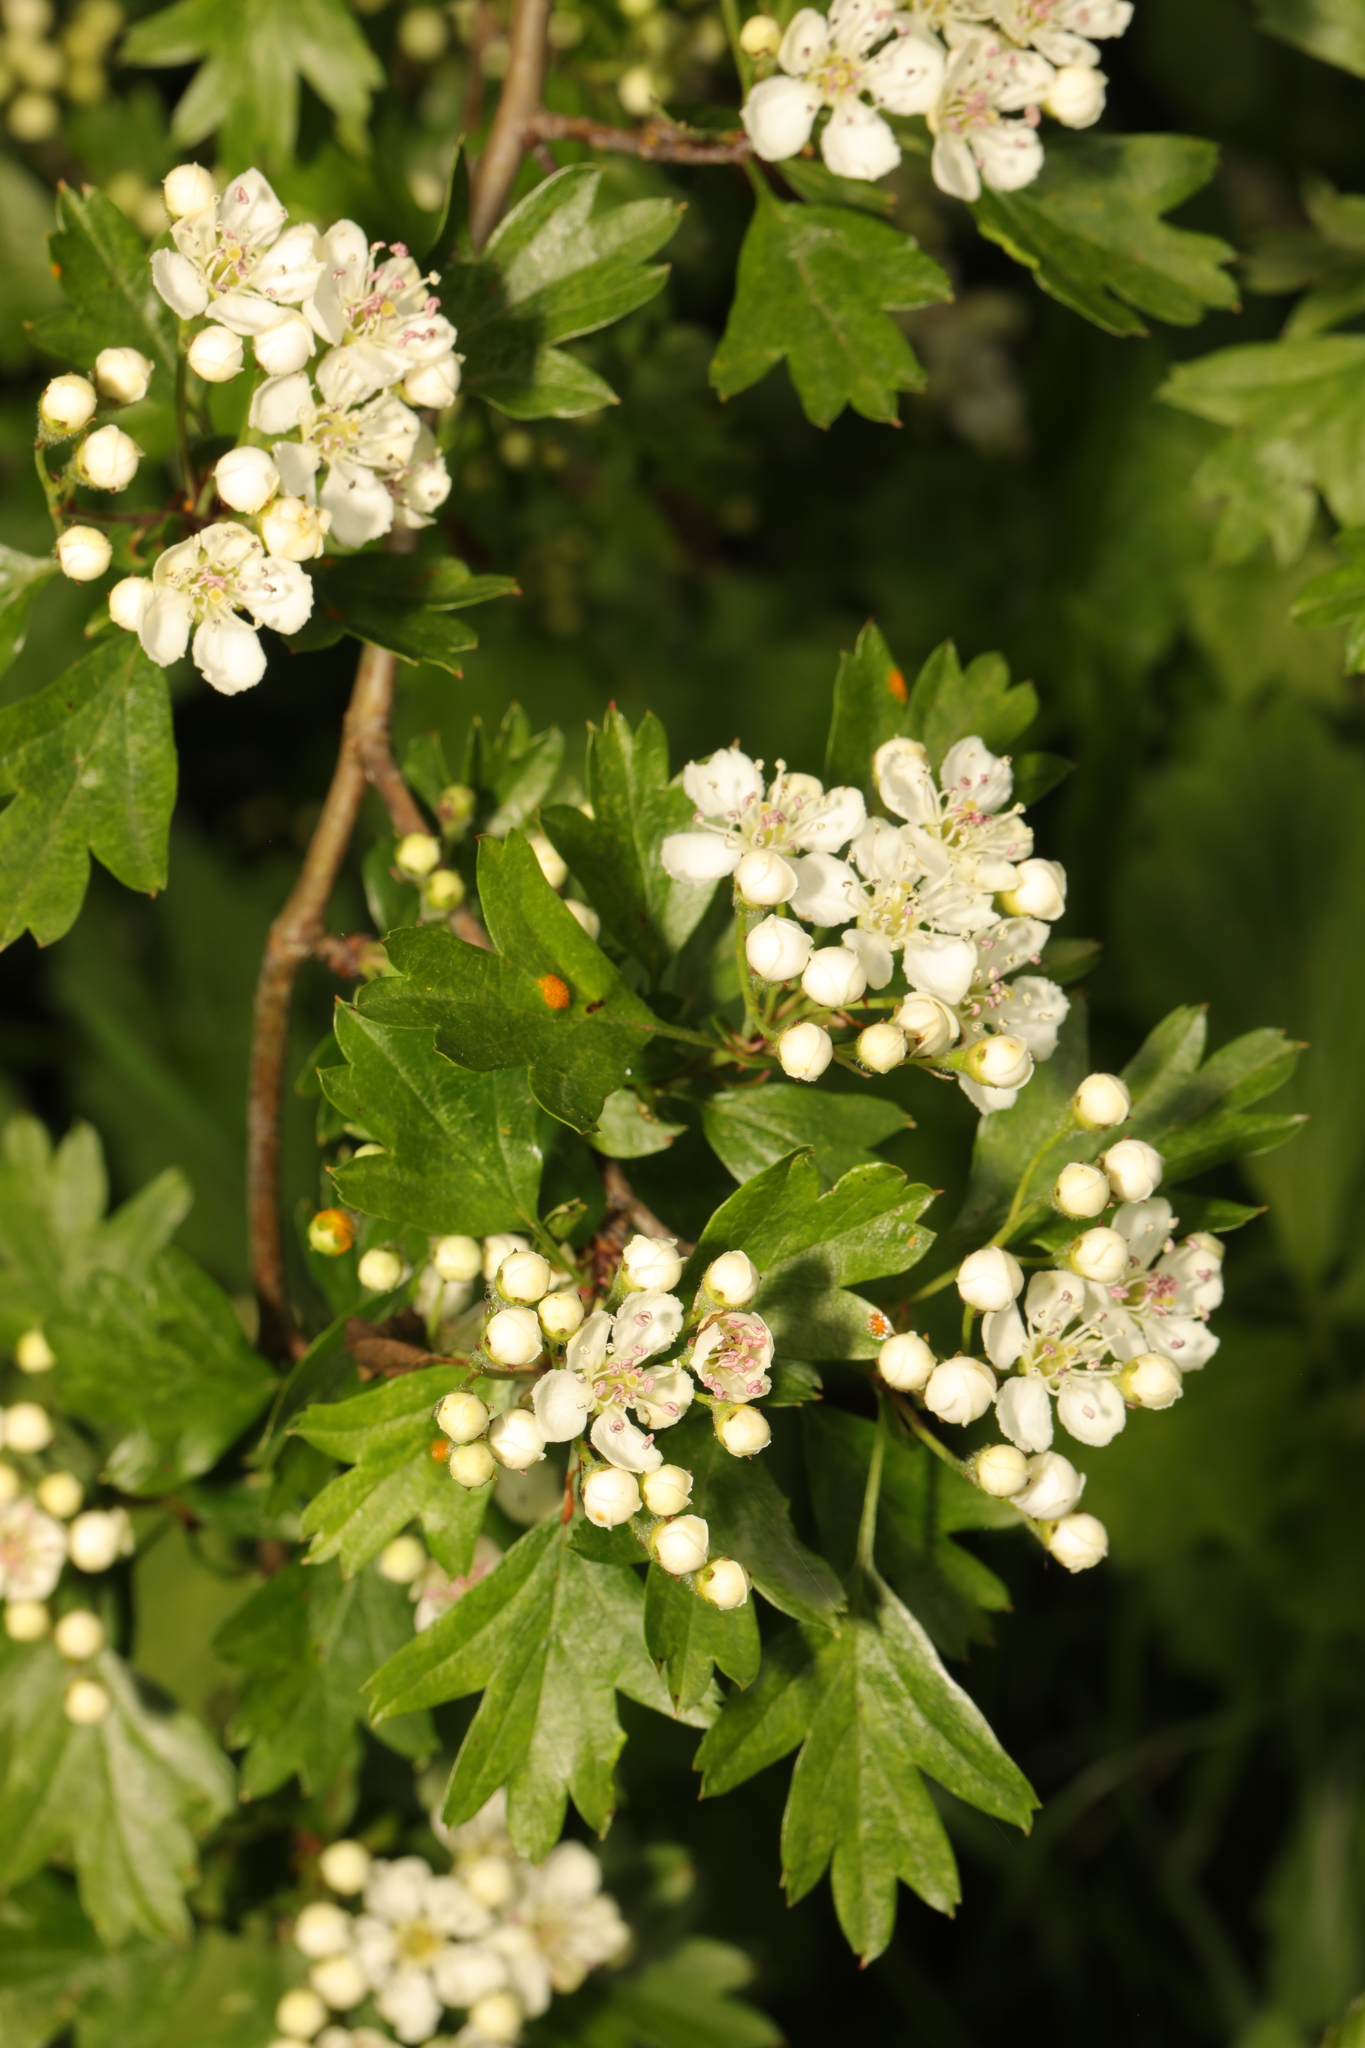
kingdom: Plantae
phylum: Tracheophyta
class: Magnoliopsida
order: Rosales
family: Rosaceae
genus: Crataegus
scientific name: Crataegus monogyna
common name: Hawthorn
